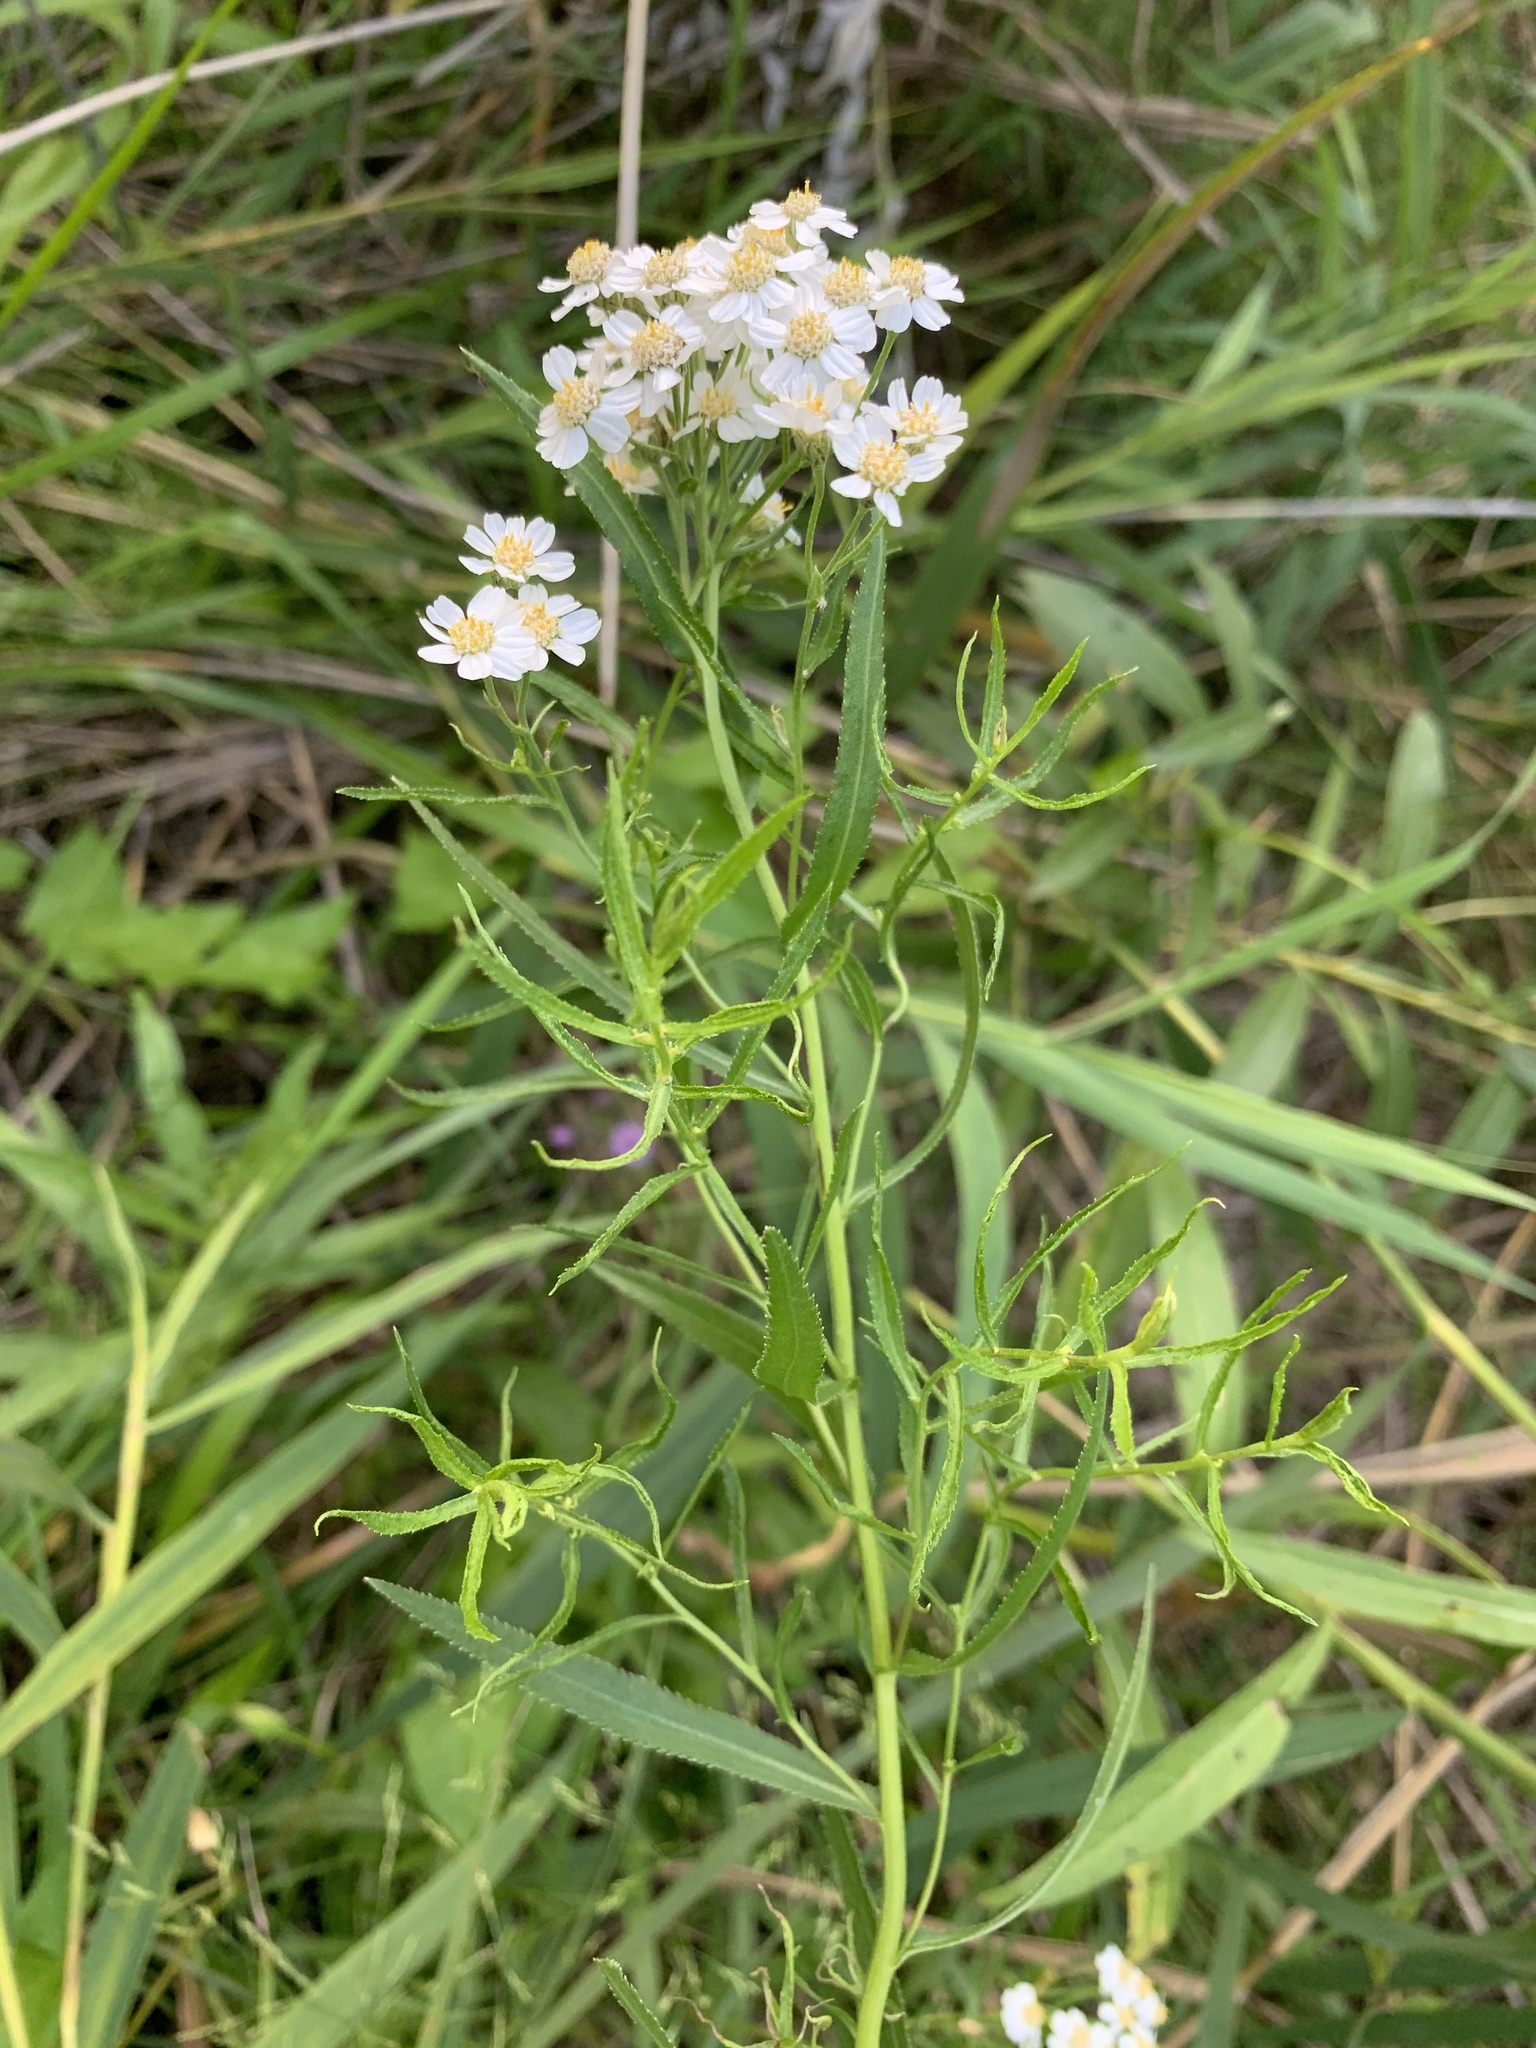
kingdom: Plantae
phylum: Tracheophyta
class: Magnoliopsida
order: Asterales
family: Asteraceae
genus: Achillea
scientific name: Achillea salicifolia
